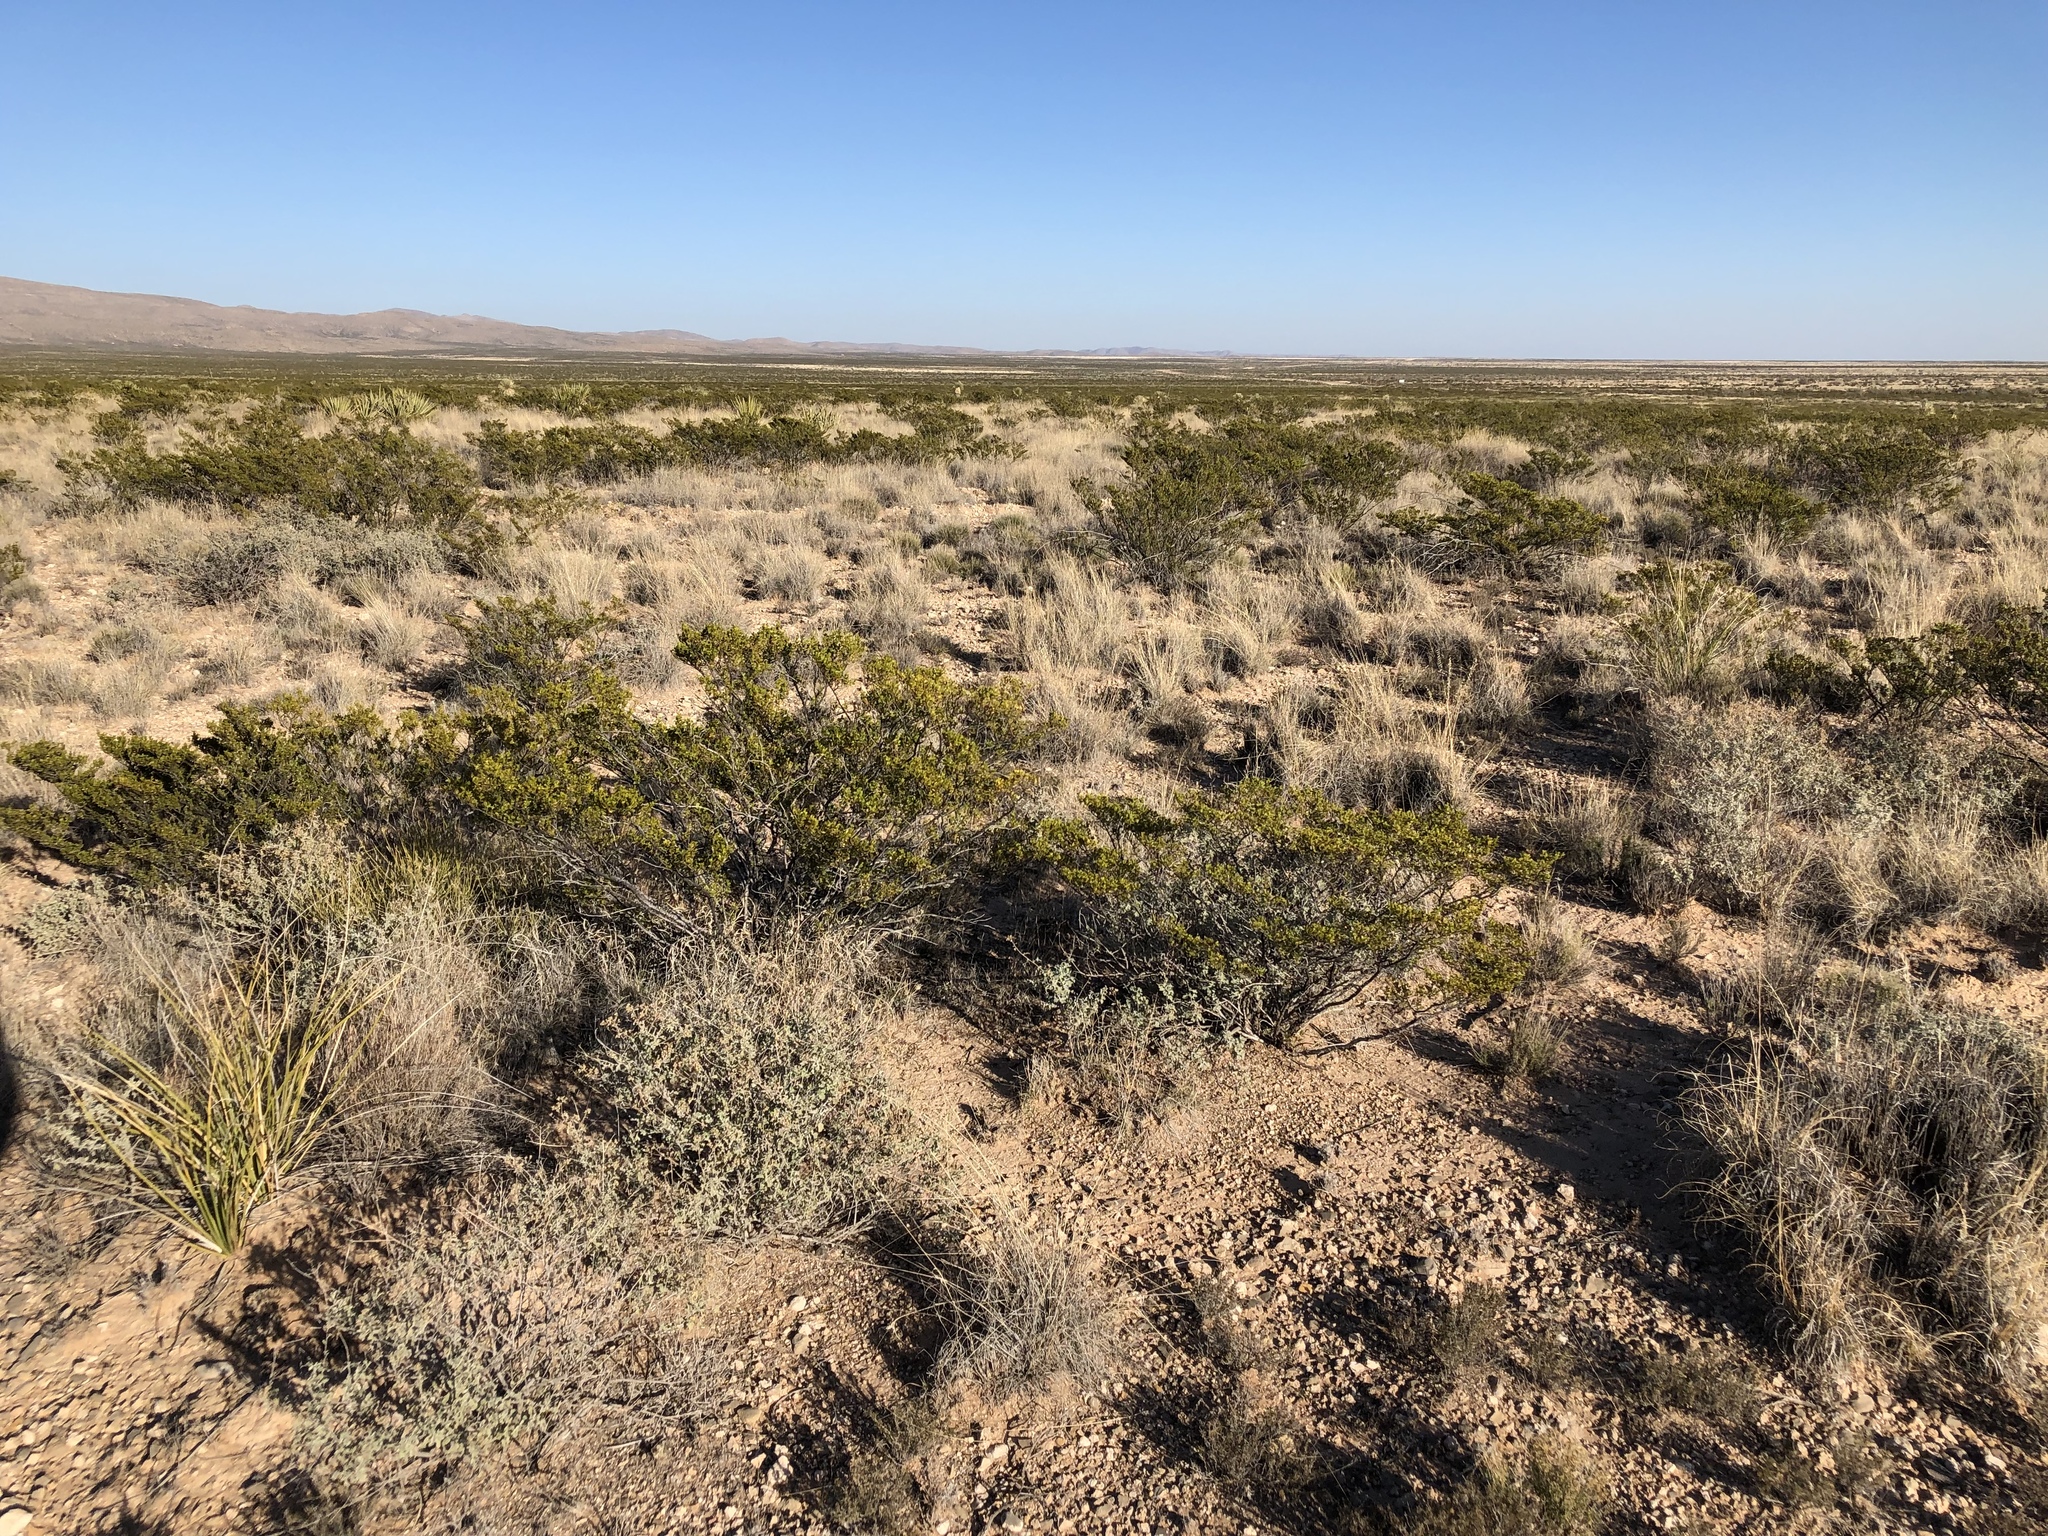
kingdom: Plantae
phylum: Tracheophyta
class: Magnoliopsida
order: Zygophyllales
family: Zygophyllaceae
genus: Larrea
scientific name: Larrea tridentata
